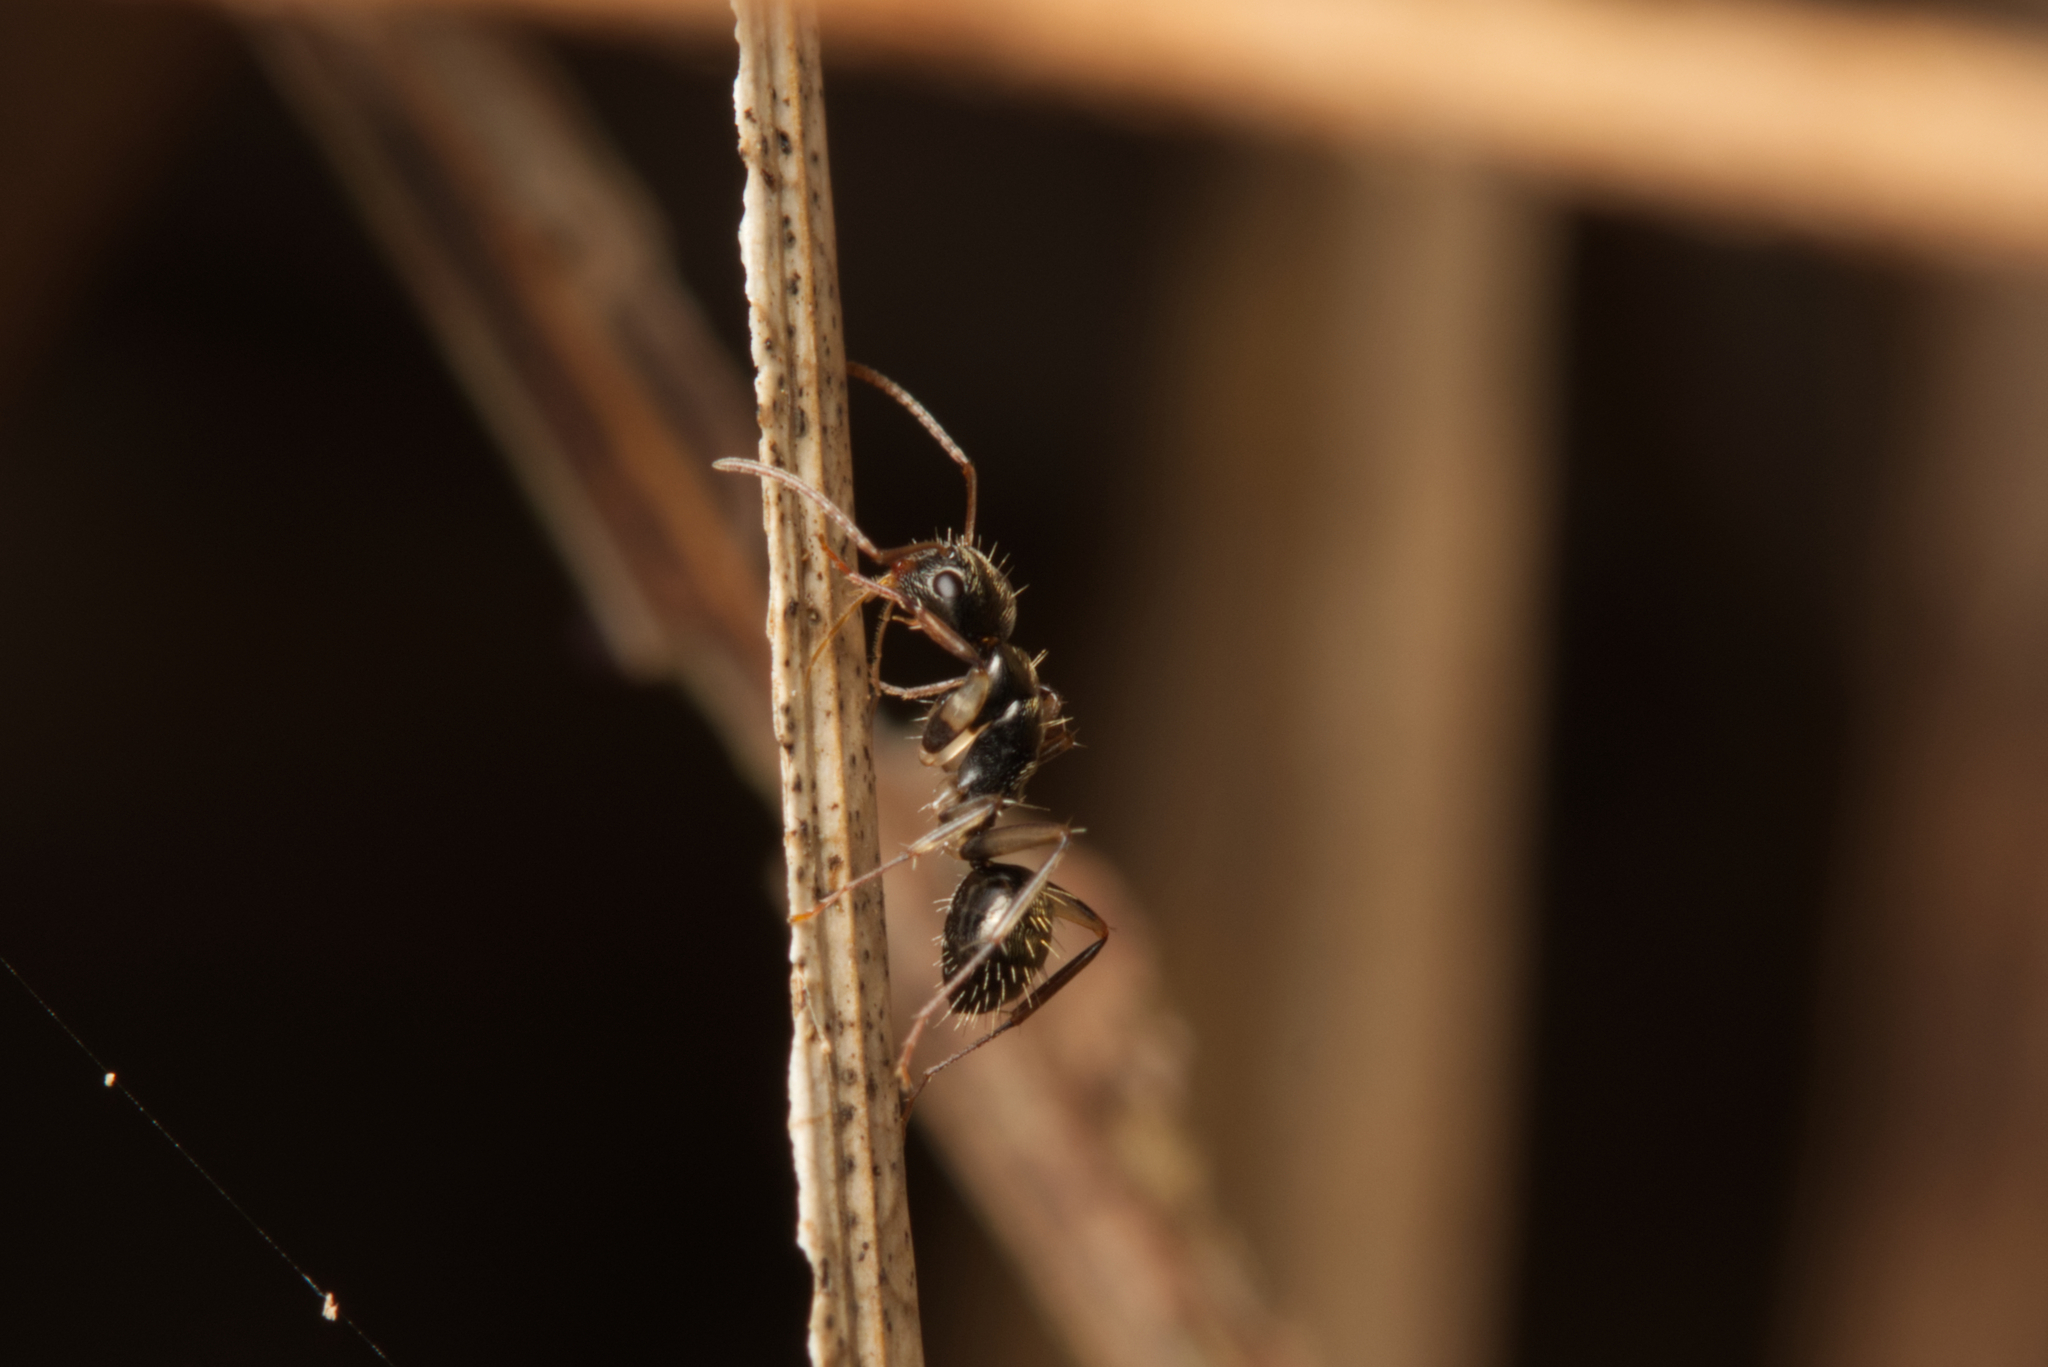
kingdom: Animalia
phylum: Arthropoda
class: Insecta
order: Hymenoptera
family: Formicidae
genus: Camponotus
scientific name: Camponotus froggatti
